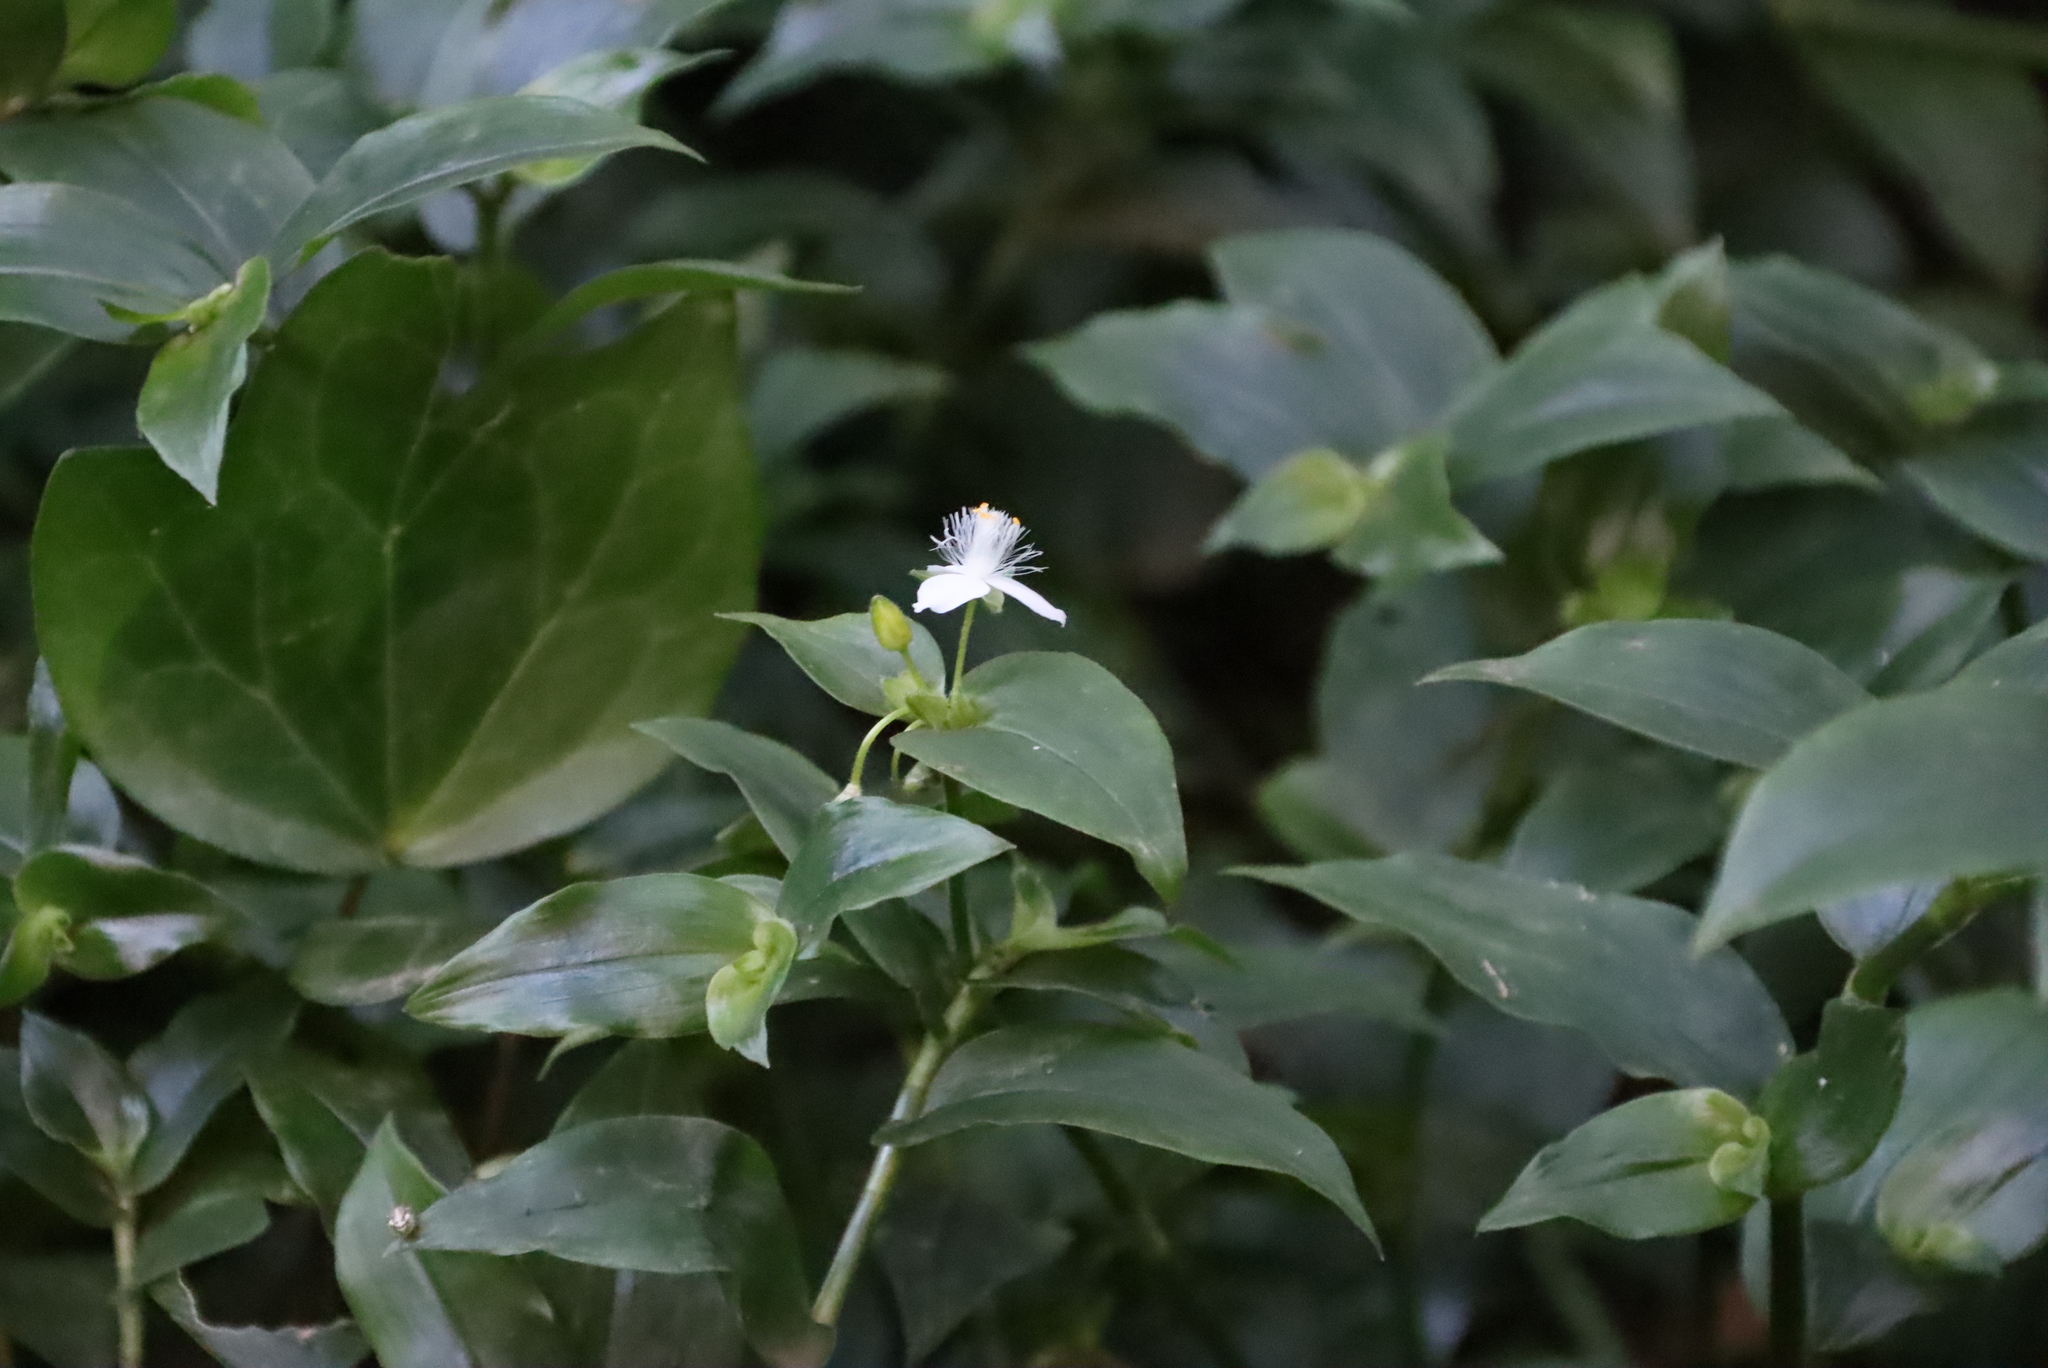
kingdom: Plantae
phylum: Tracheophyta
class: Liliopsida
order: Commelinales
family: Commelinaceae
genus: Tradescantia
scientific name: Tradescantia fluminensis
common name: Wandering-jew
